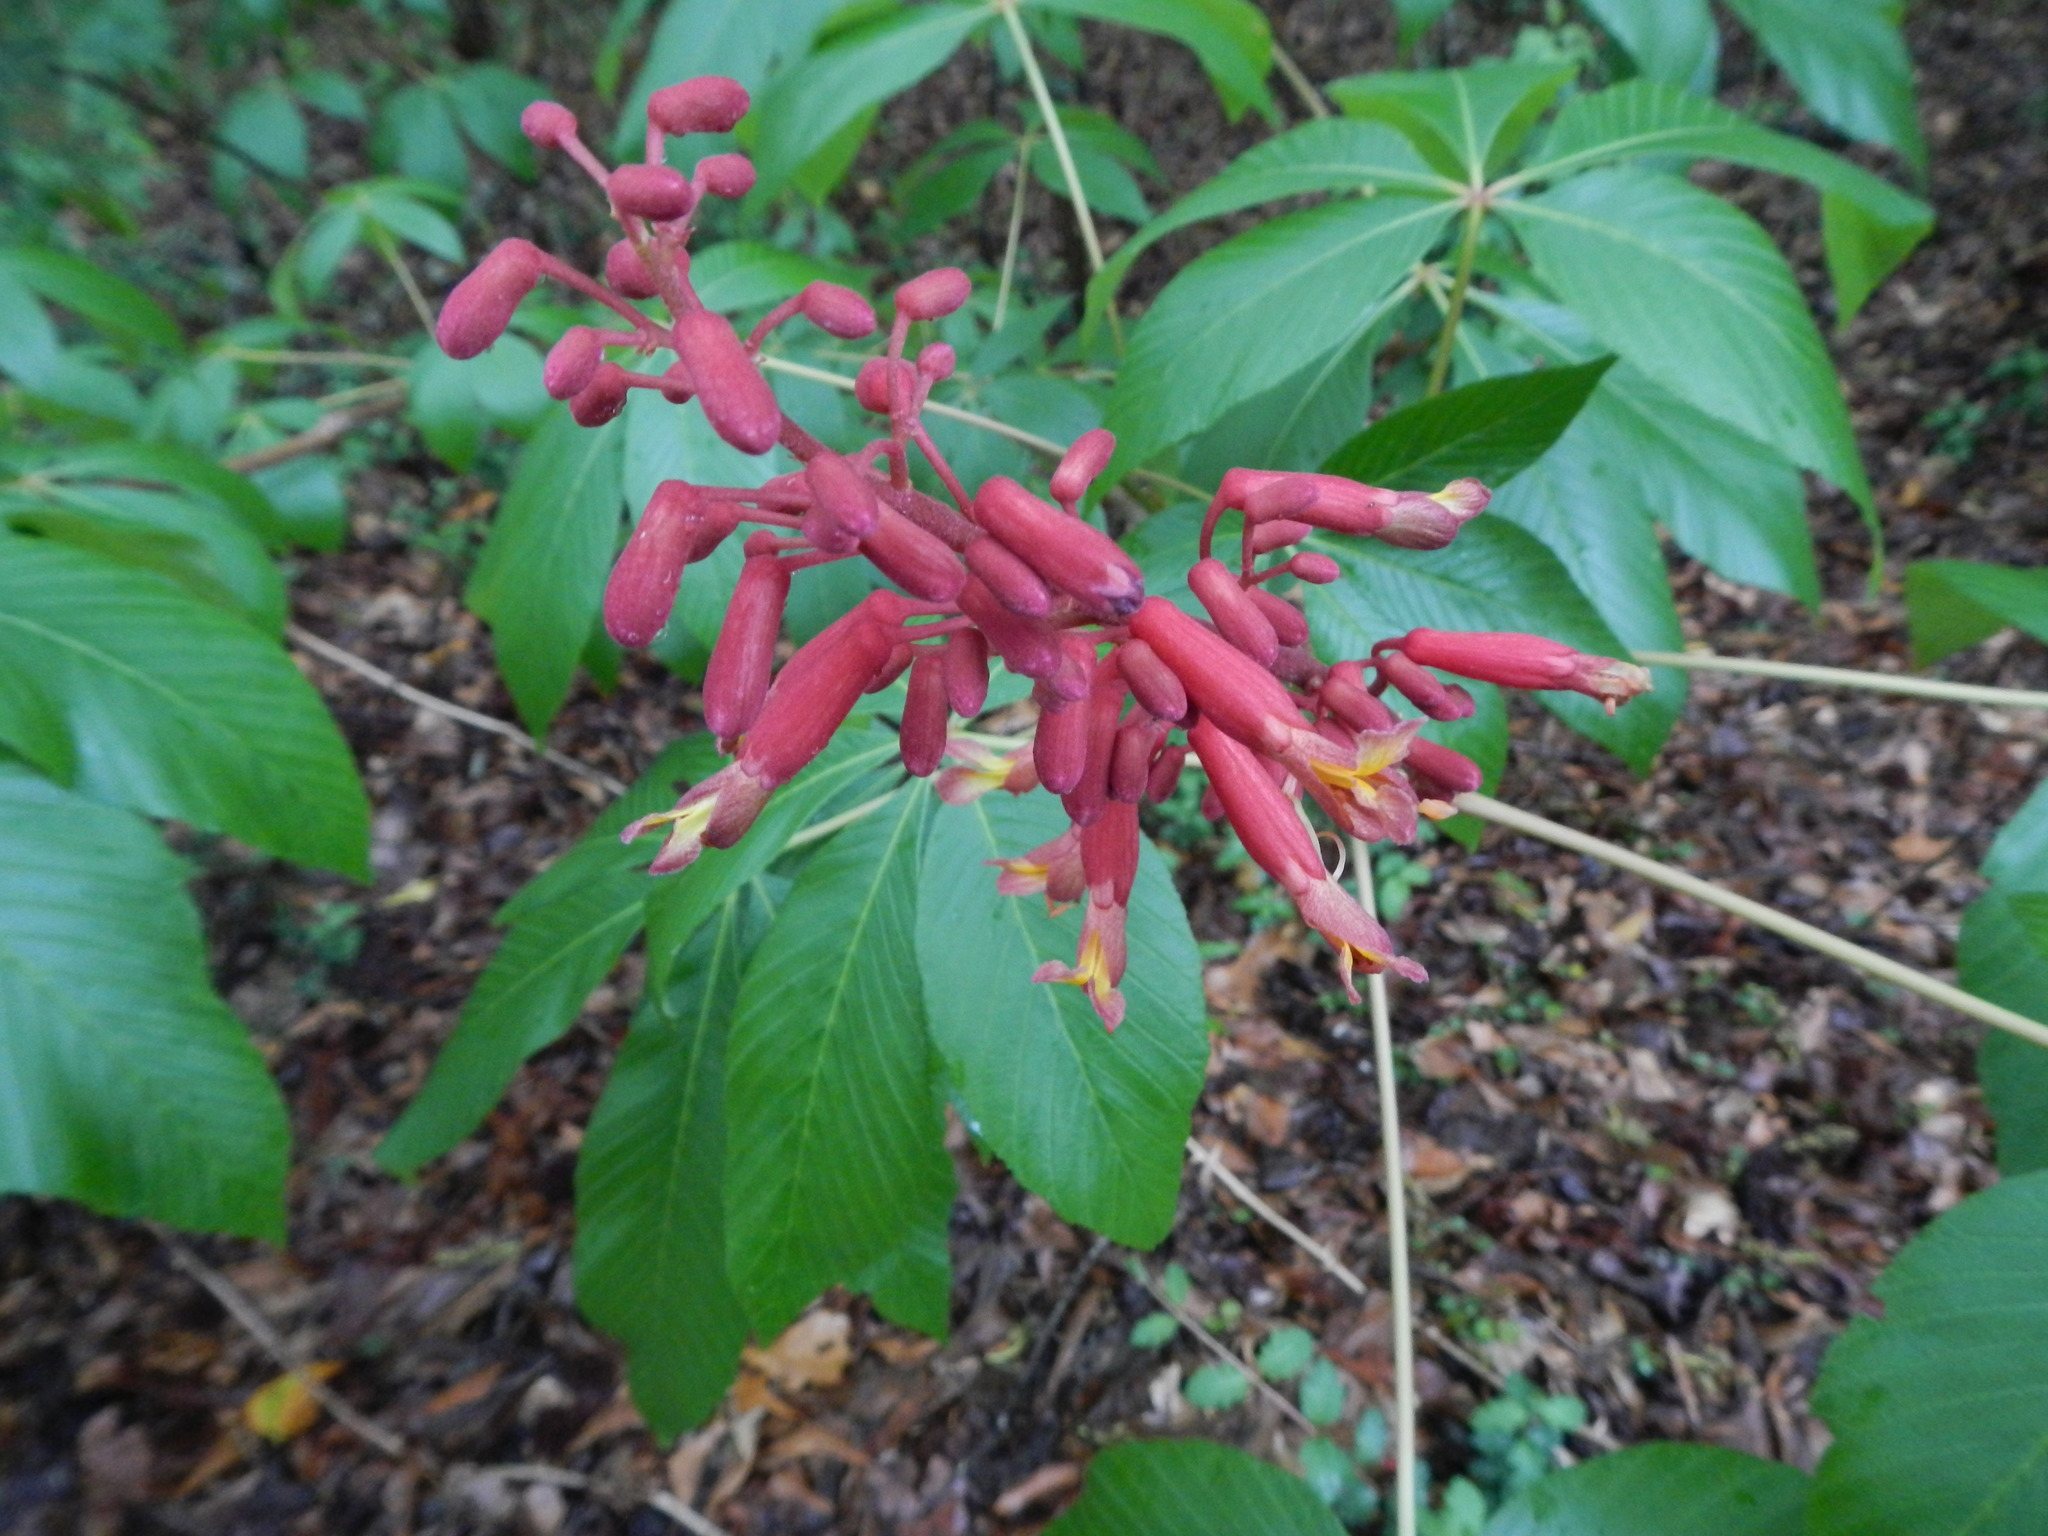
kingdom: Plantae
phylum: Tracheophyta
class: Magnoliopsida
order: Sapindales
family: Sapindaceae
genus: Aesculus
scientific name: Aesculus pavia
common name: Red buckeye
